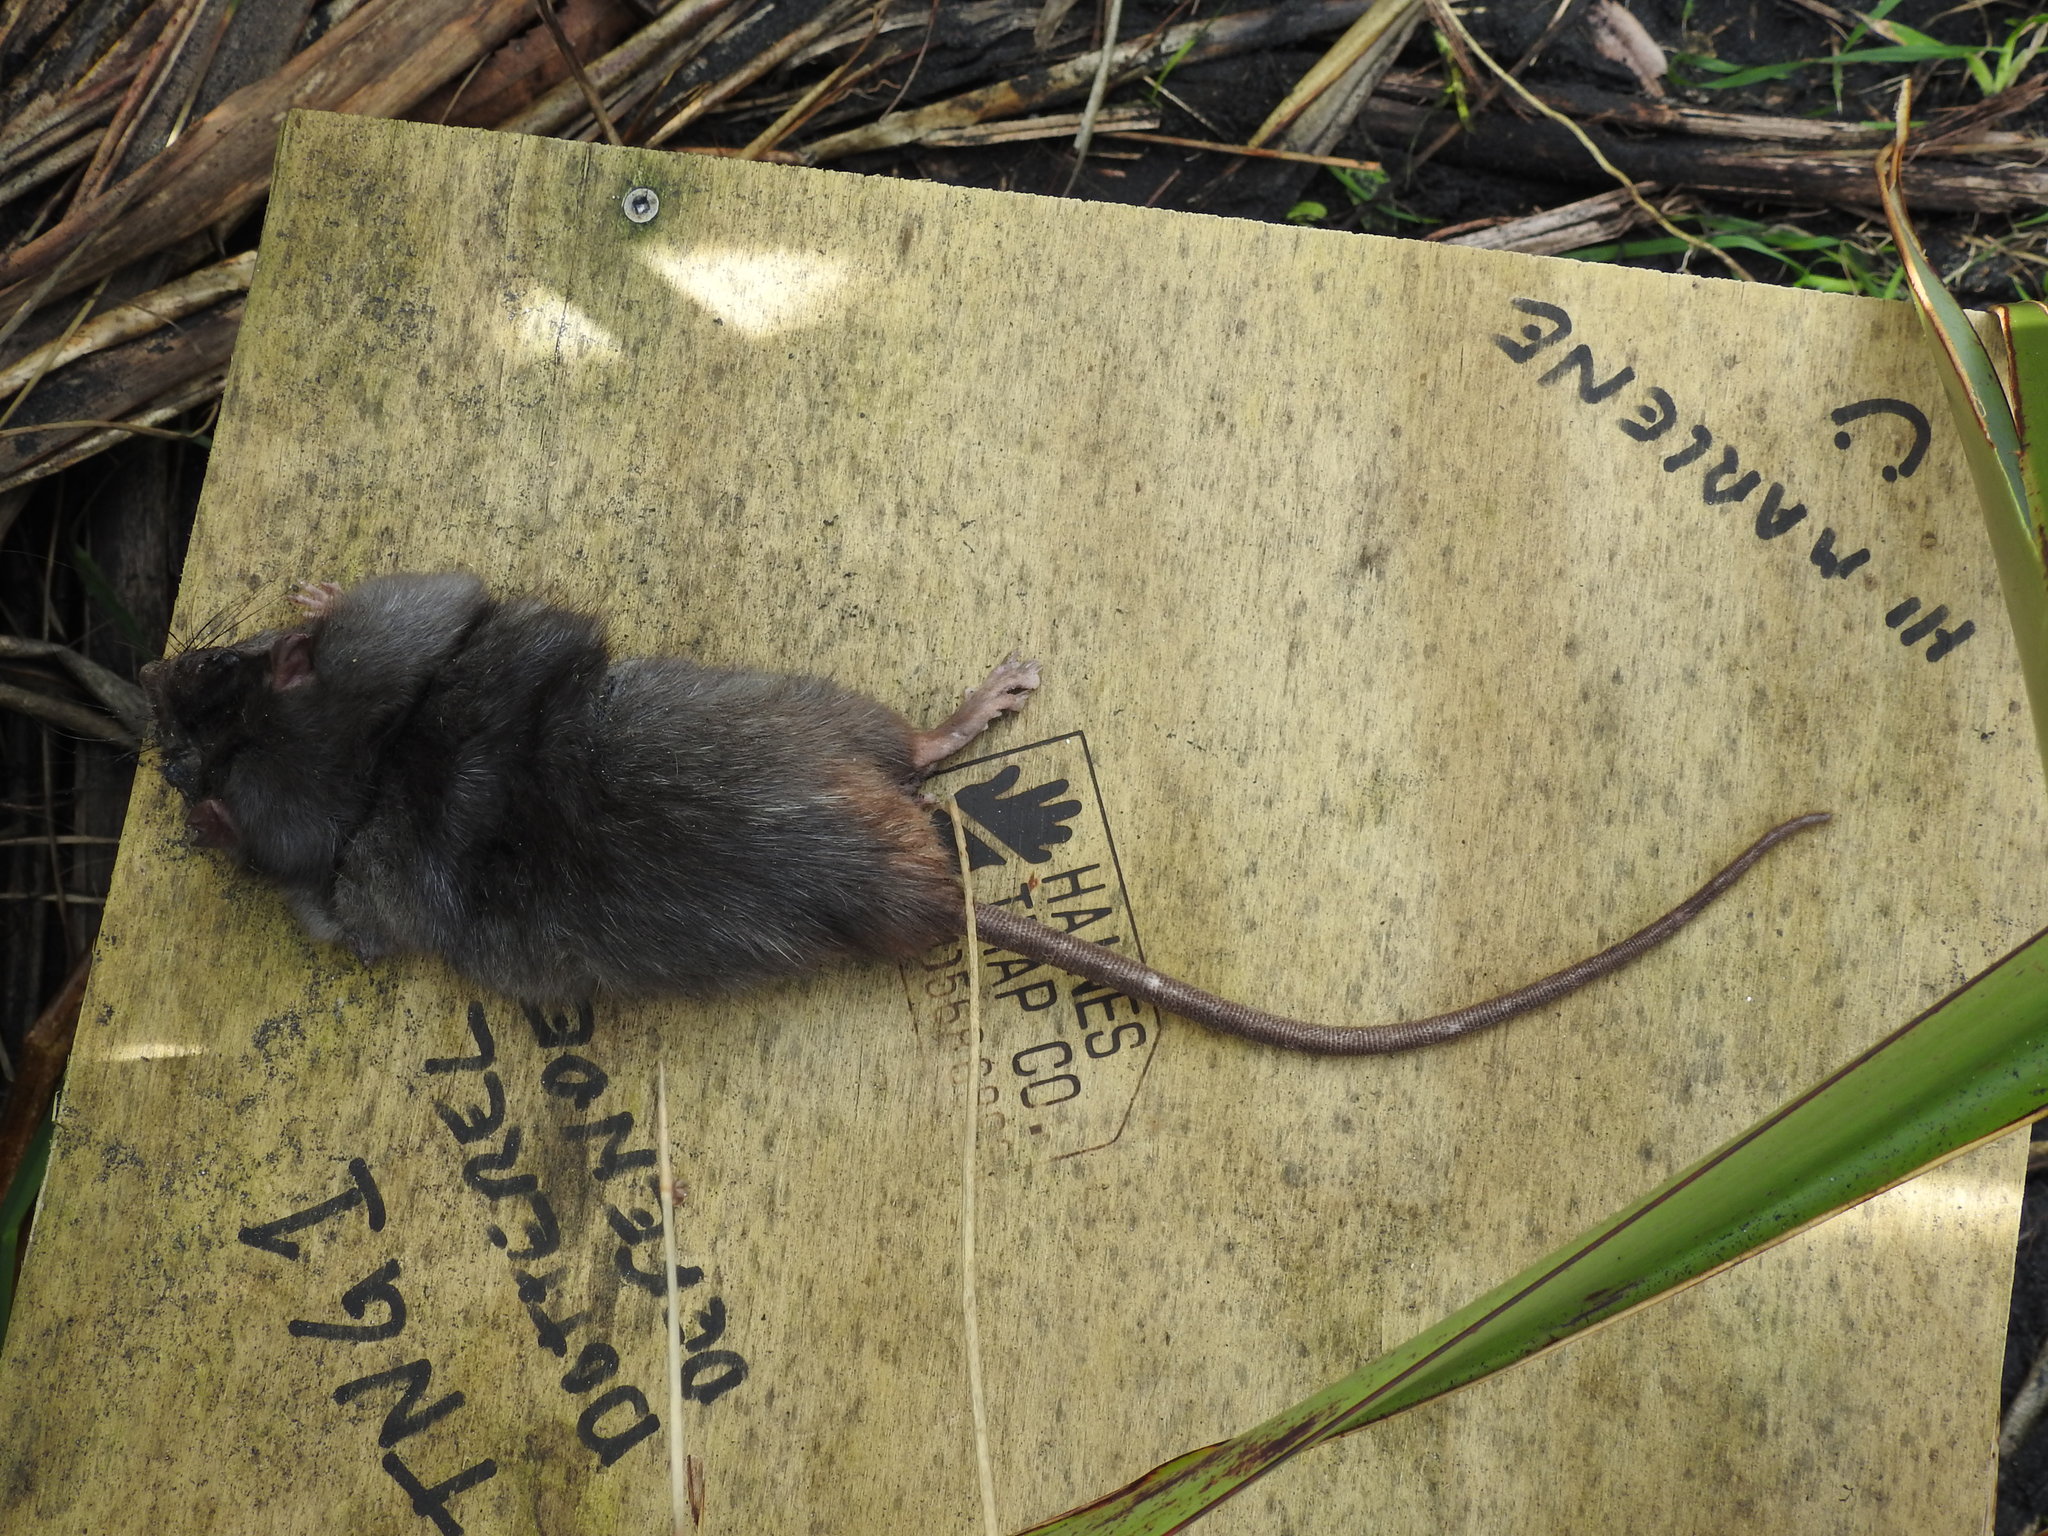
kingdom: Animalia
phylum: Chordata
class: Mammalia
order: Rodentia
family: Muridae
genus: Rattus
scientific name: Rattus rattus
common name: Black rat
